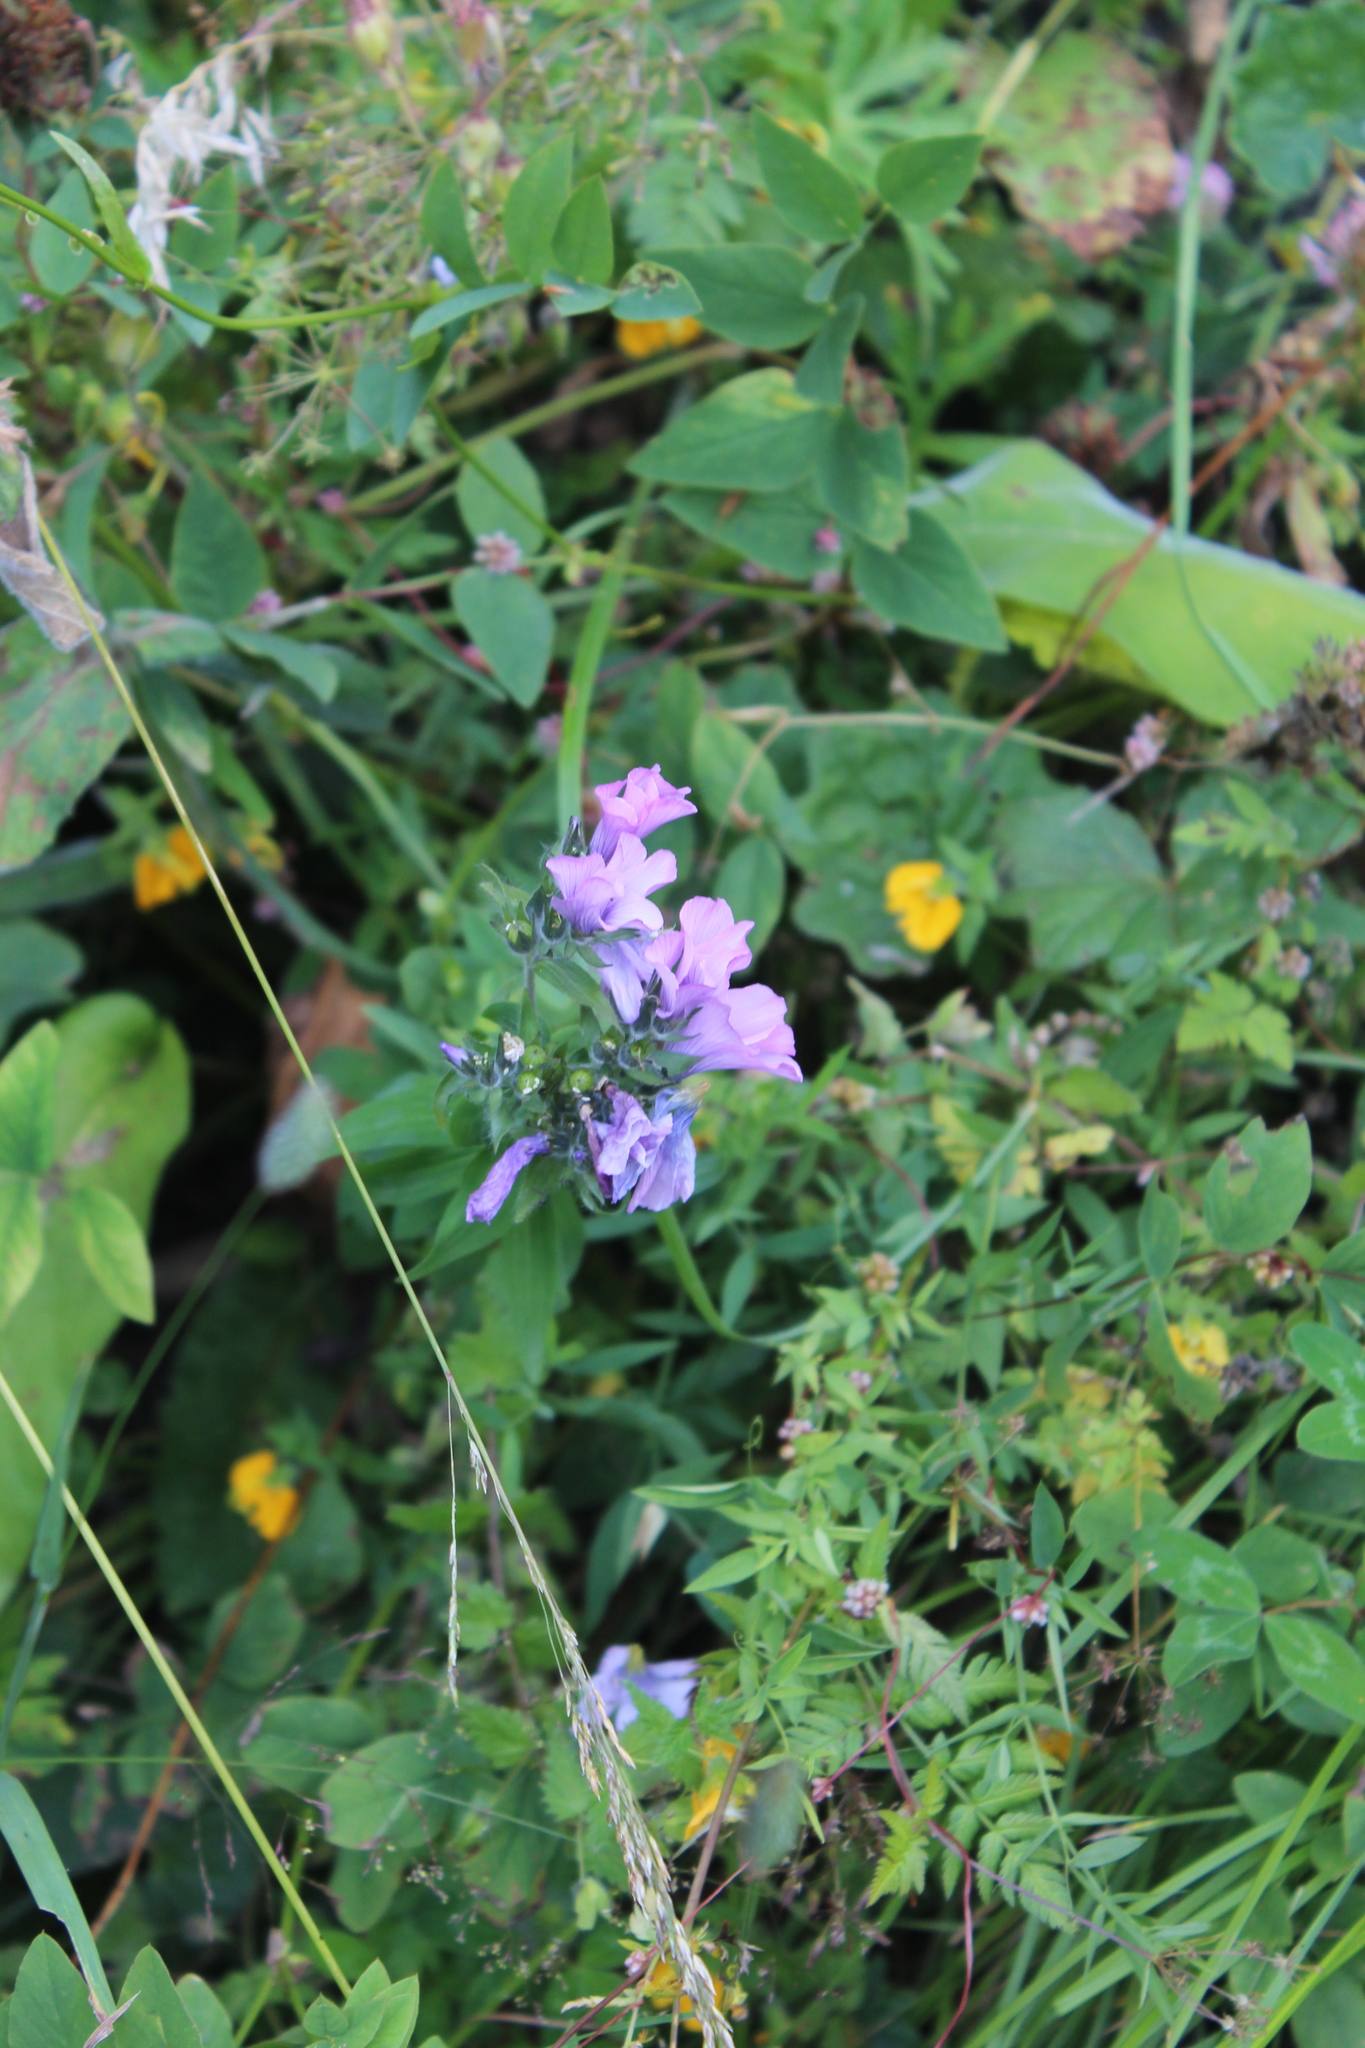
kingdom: Plantae
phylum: Tracheophyta
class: Magnoliopsida
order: Malpighiales
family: Linaceae
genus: Linum
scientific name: Linum hypericifolium
